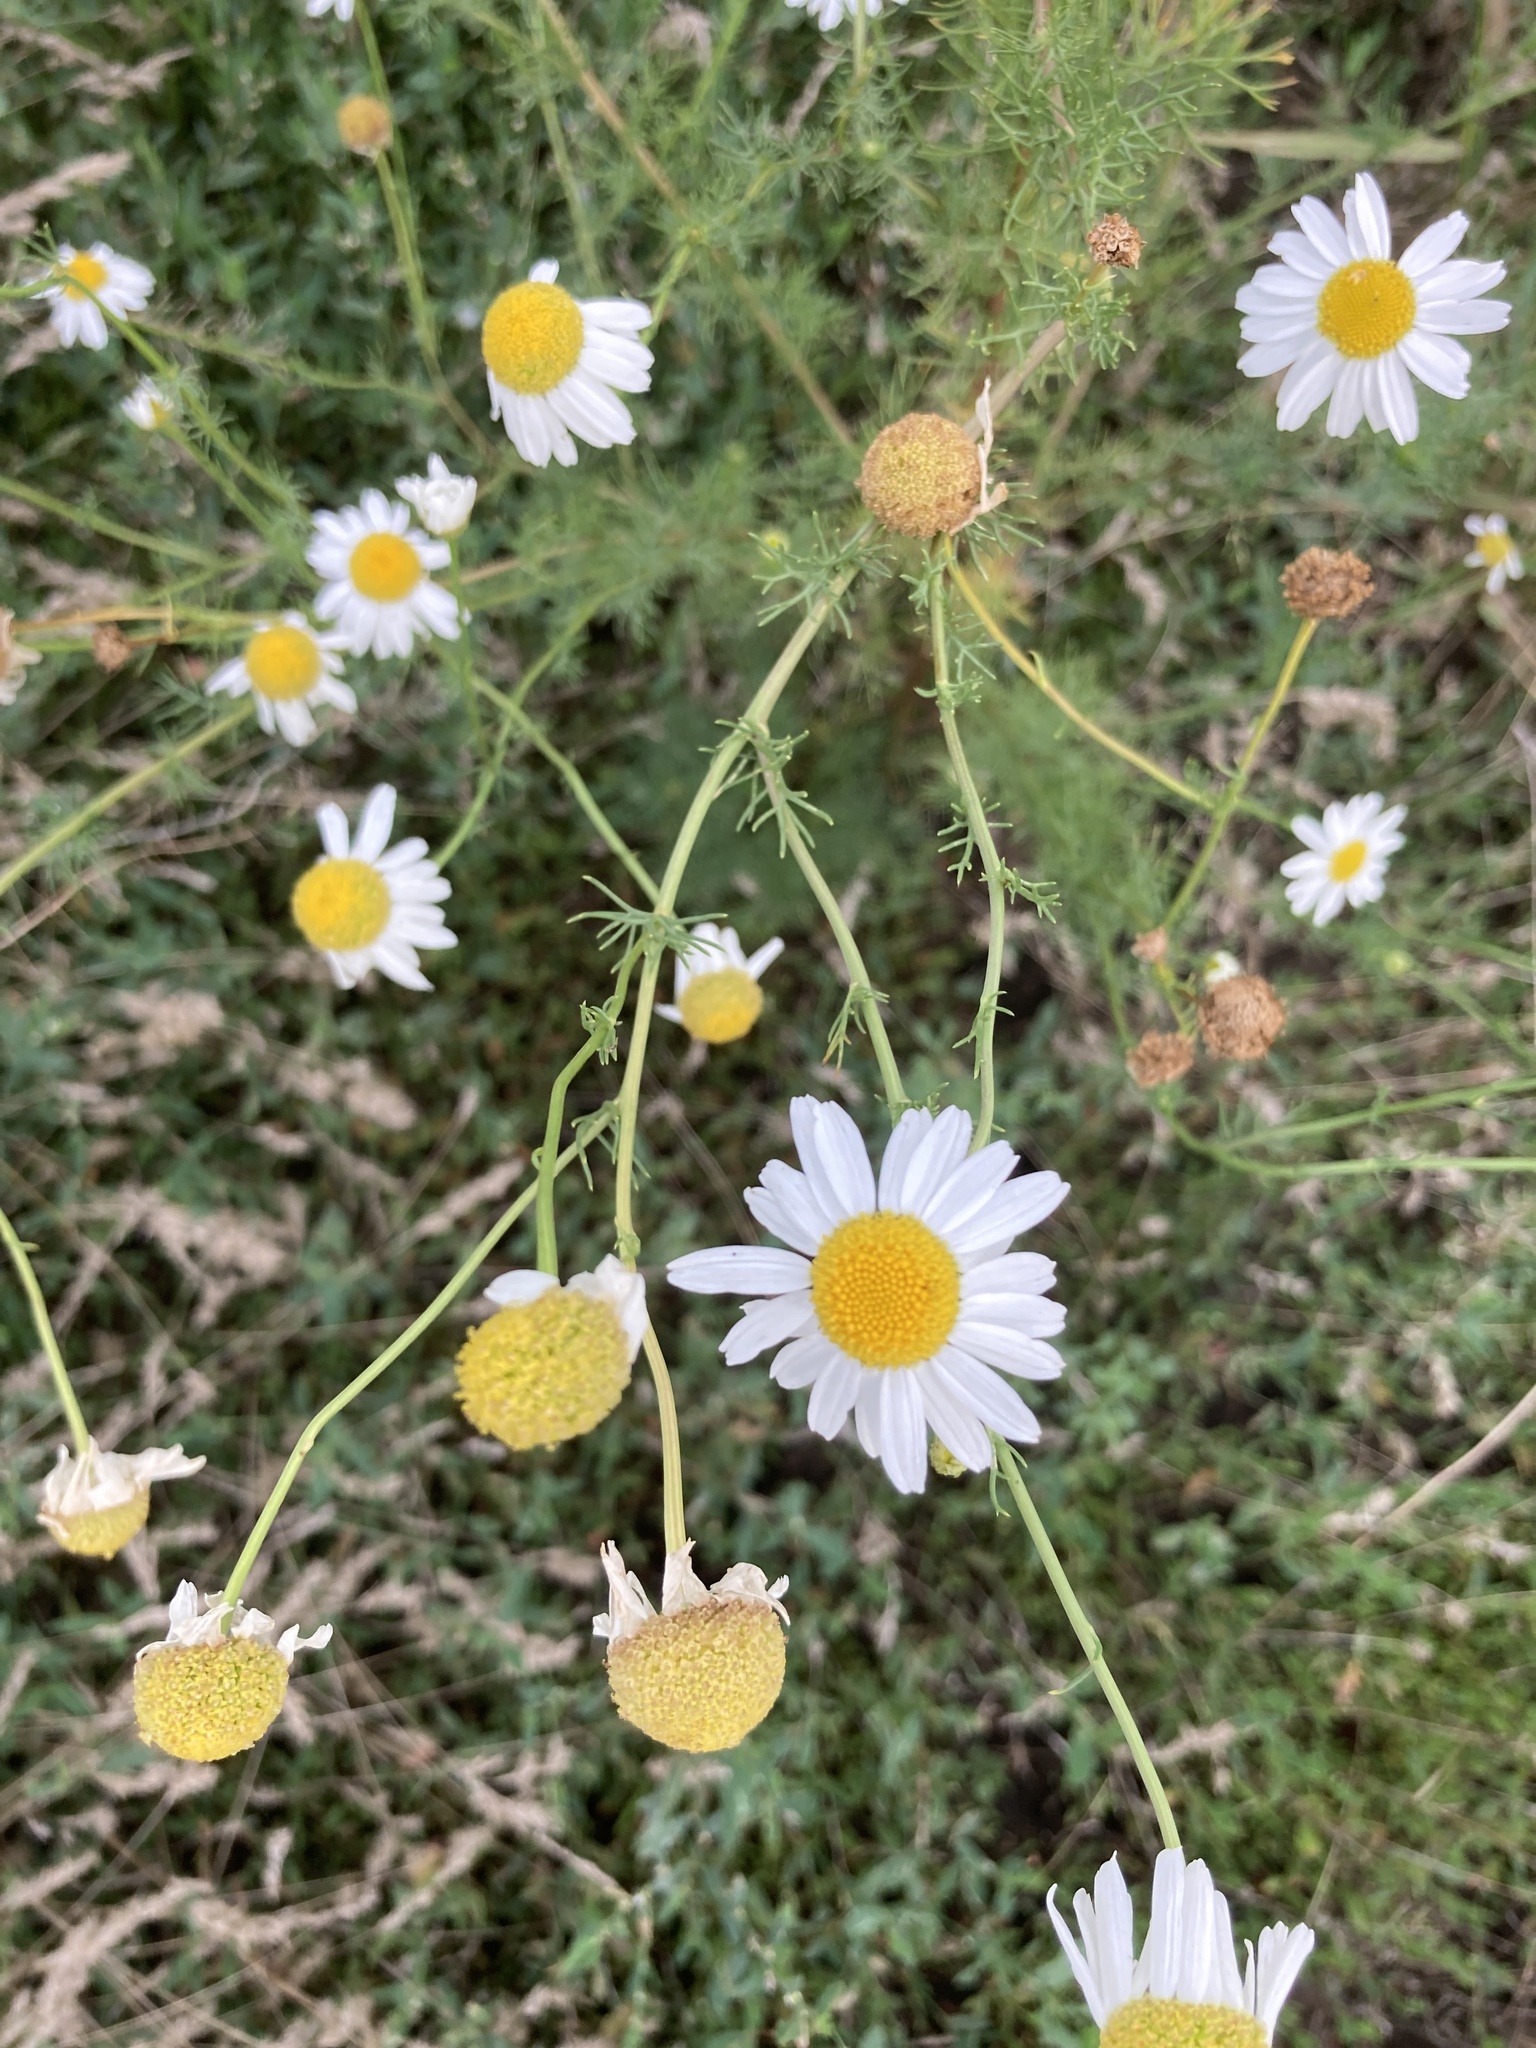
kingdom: Plantae
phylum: Tracheophyta
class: Magnoliopsida
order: Asterales
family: Asteraceae
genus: Tripleurospermum
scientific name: Tripleurospermum inodorum
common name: Scentless mayweed
